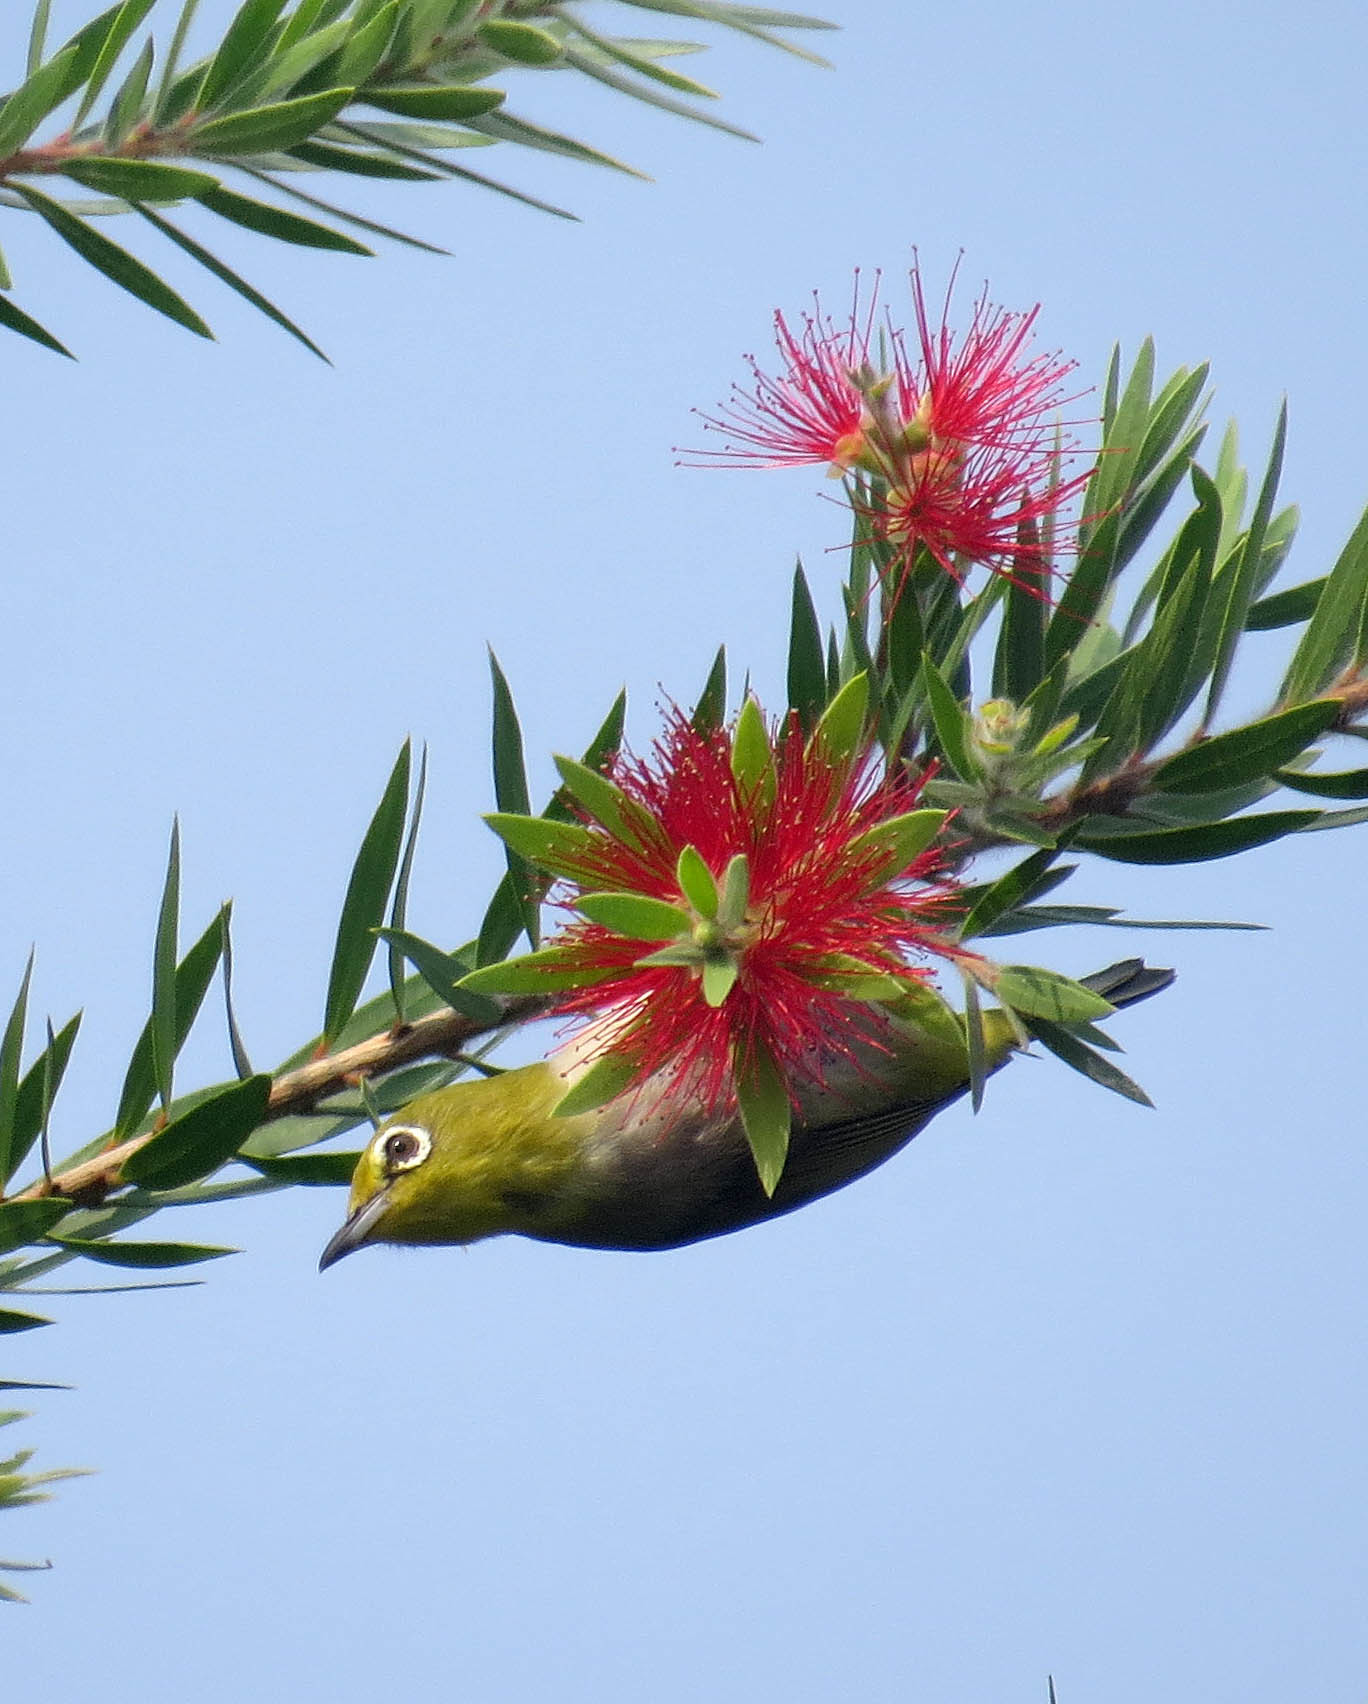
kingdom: Animalia
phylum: Chordata
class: Aves
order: Passeriformes
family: Zosteropidae
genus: Zosterops
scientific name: Zosterops simplex
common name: Swinhoe's white-eye
